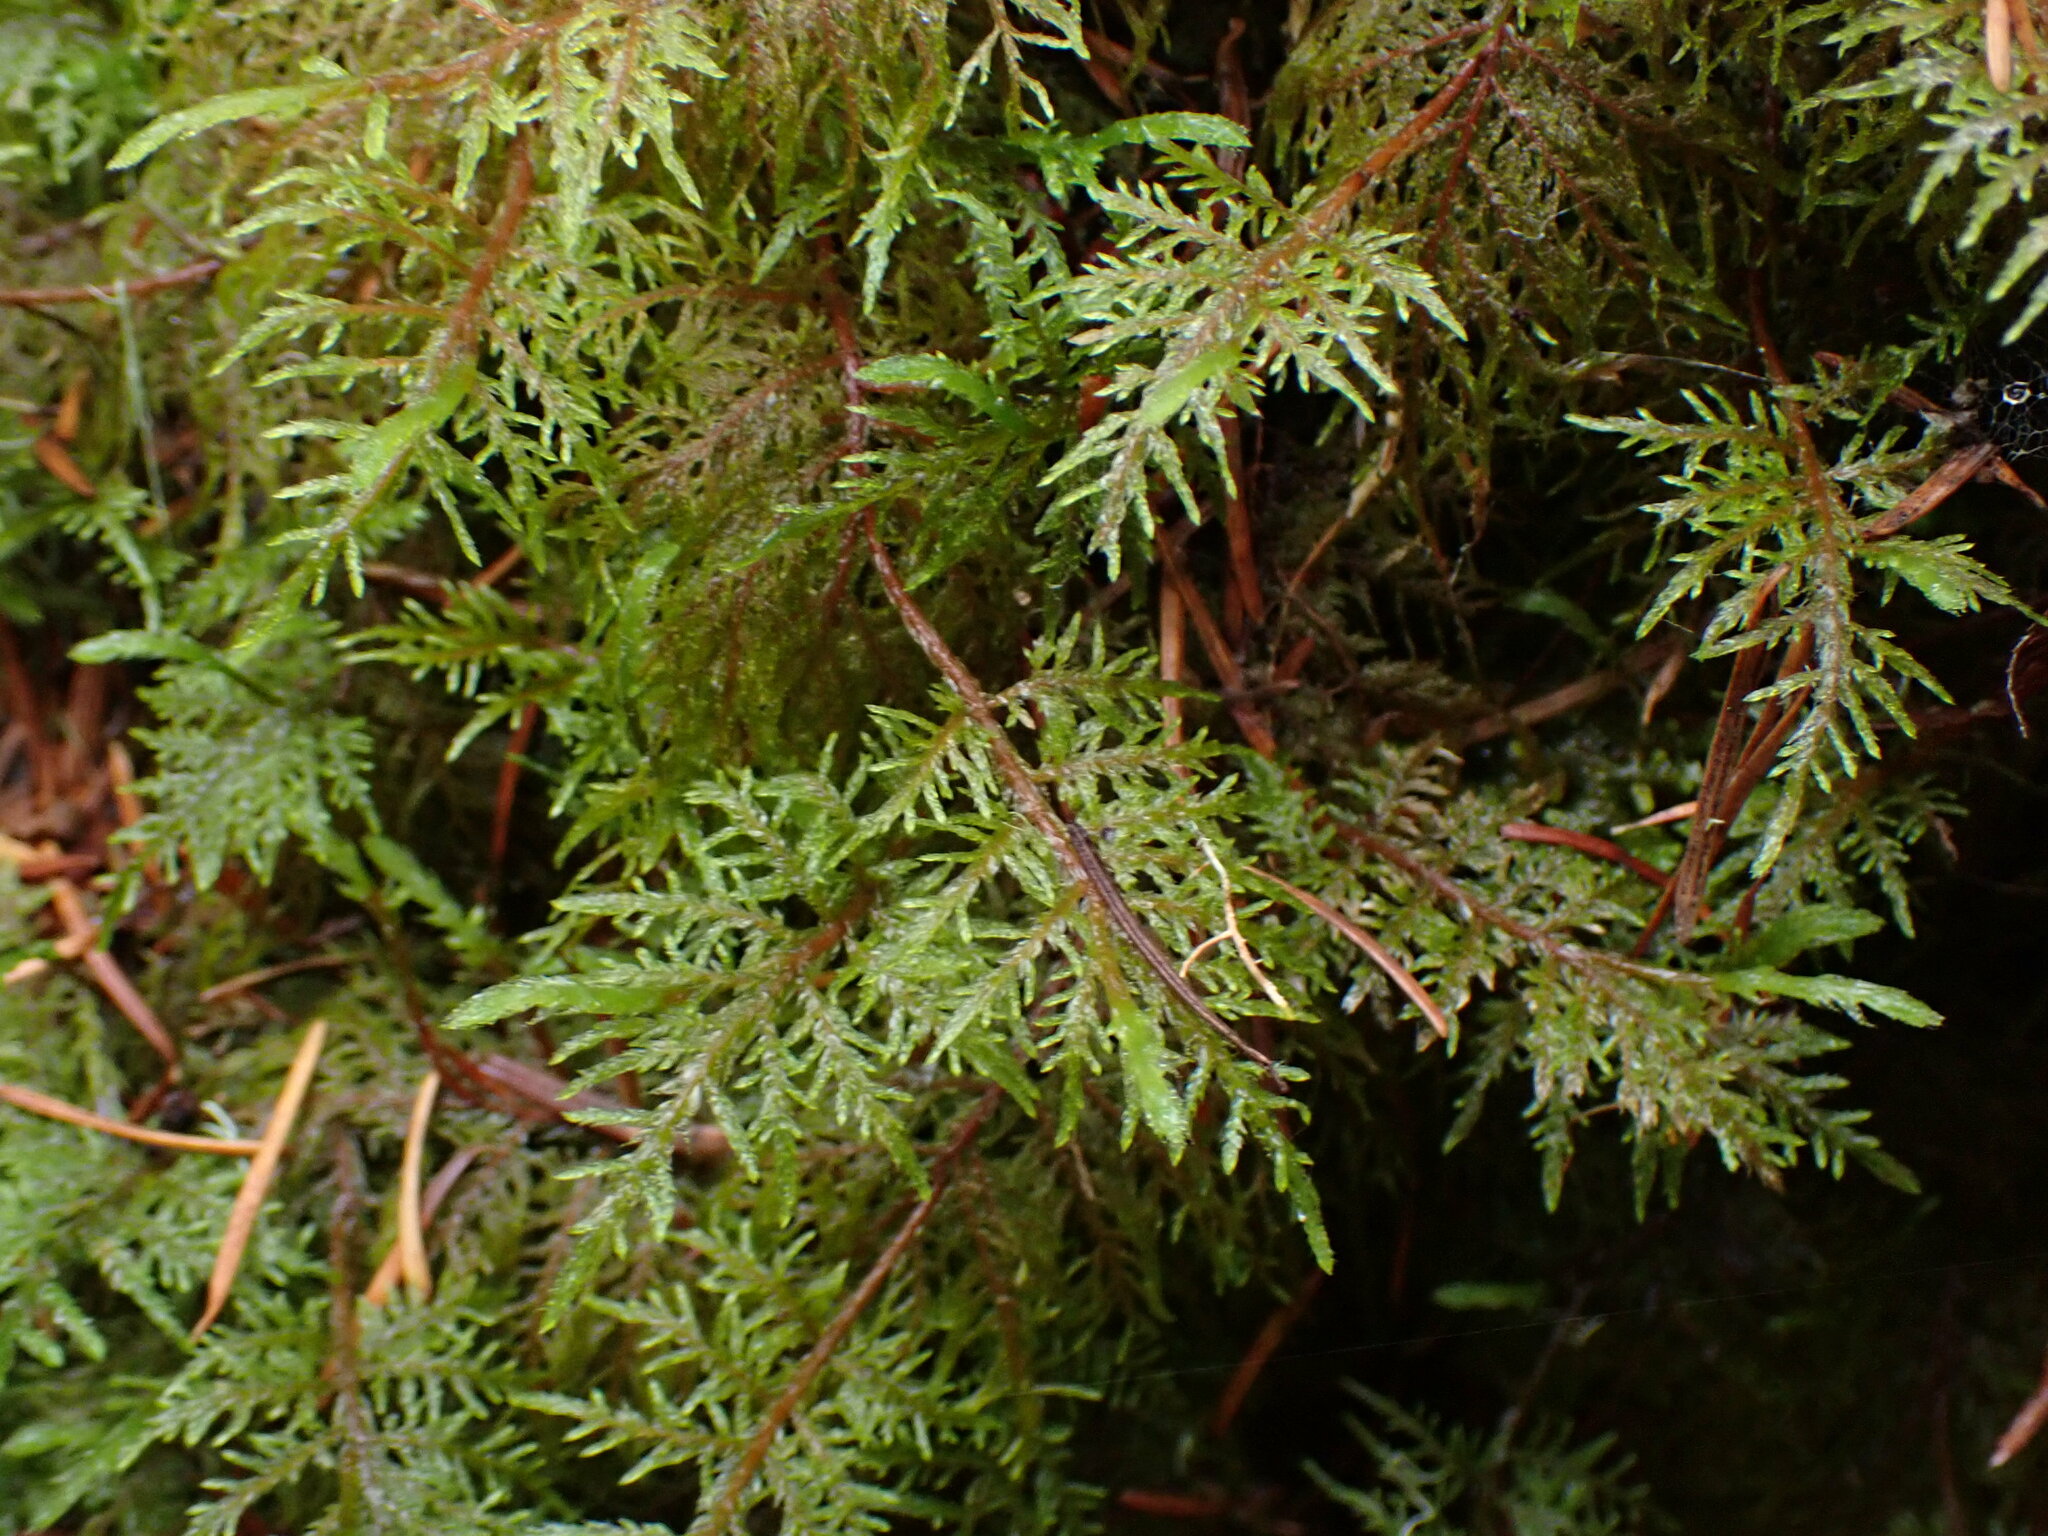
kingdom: Plantae
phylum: Bryophyta
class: Bryopsida
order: Hypnales
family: Hylocomiaceae
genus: Hylocomium
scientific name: Hylocomium splendens
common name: Stairstep moss
